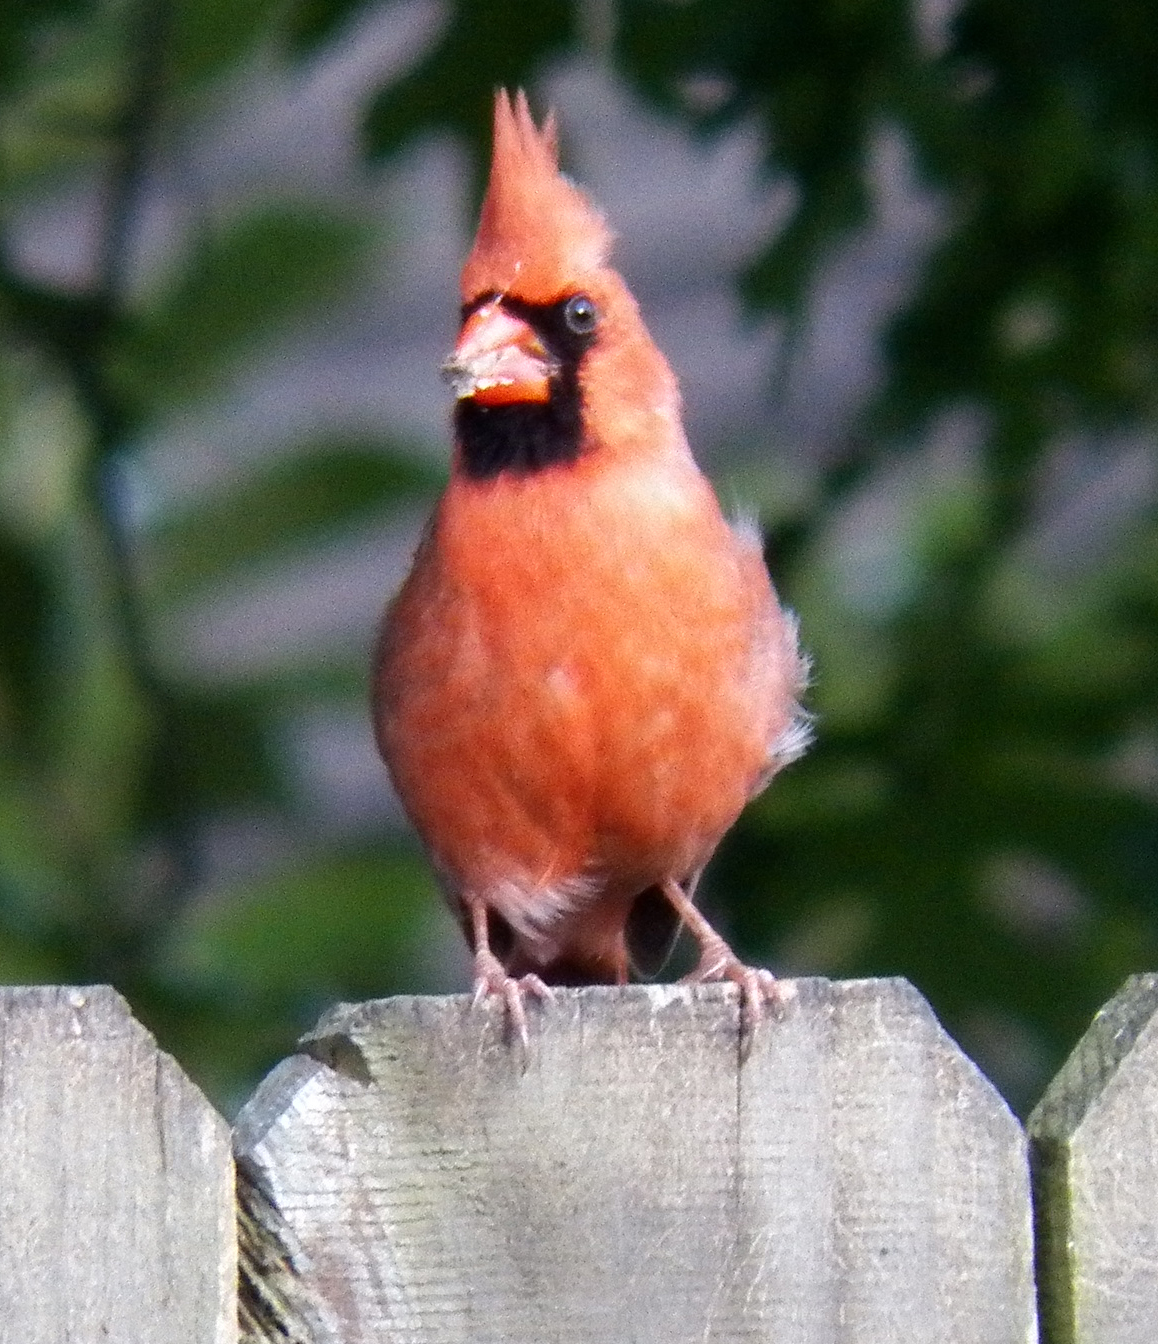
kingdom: Animalia
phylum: Chordata
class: Aves
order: Passeriformes
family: Cardinalidae
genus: Cardinalis
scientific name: Cardinalis cardinalis
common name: Northern cardinal
